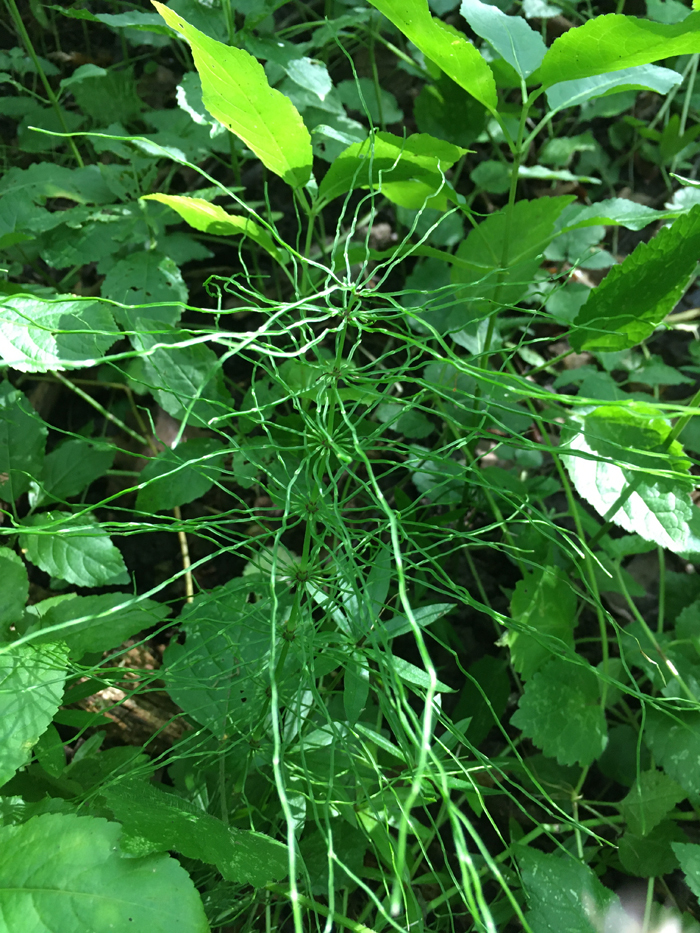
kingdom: Plantae
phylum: Tracheophyta
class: Polypodiopsida
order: Equisetales
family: Equisetaceae
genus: Equisetum
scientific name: Equisetum pratense
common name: Meadow horsetail
